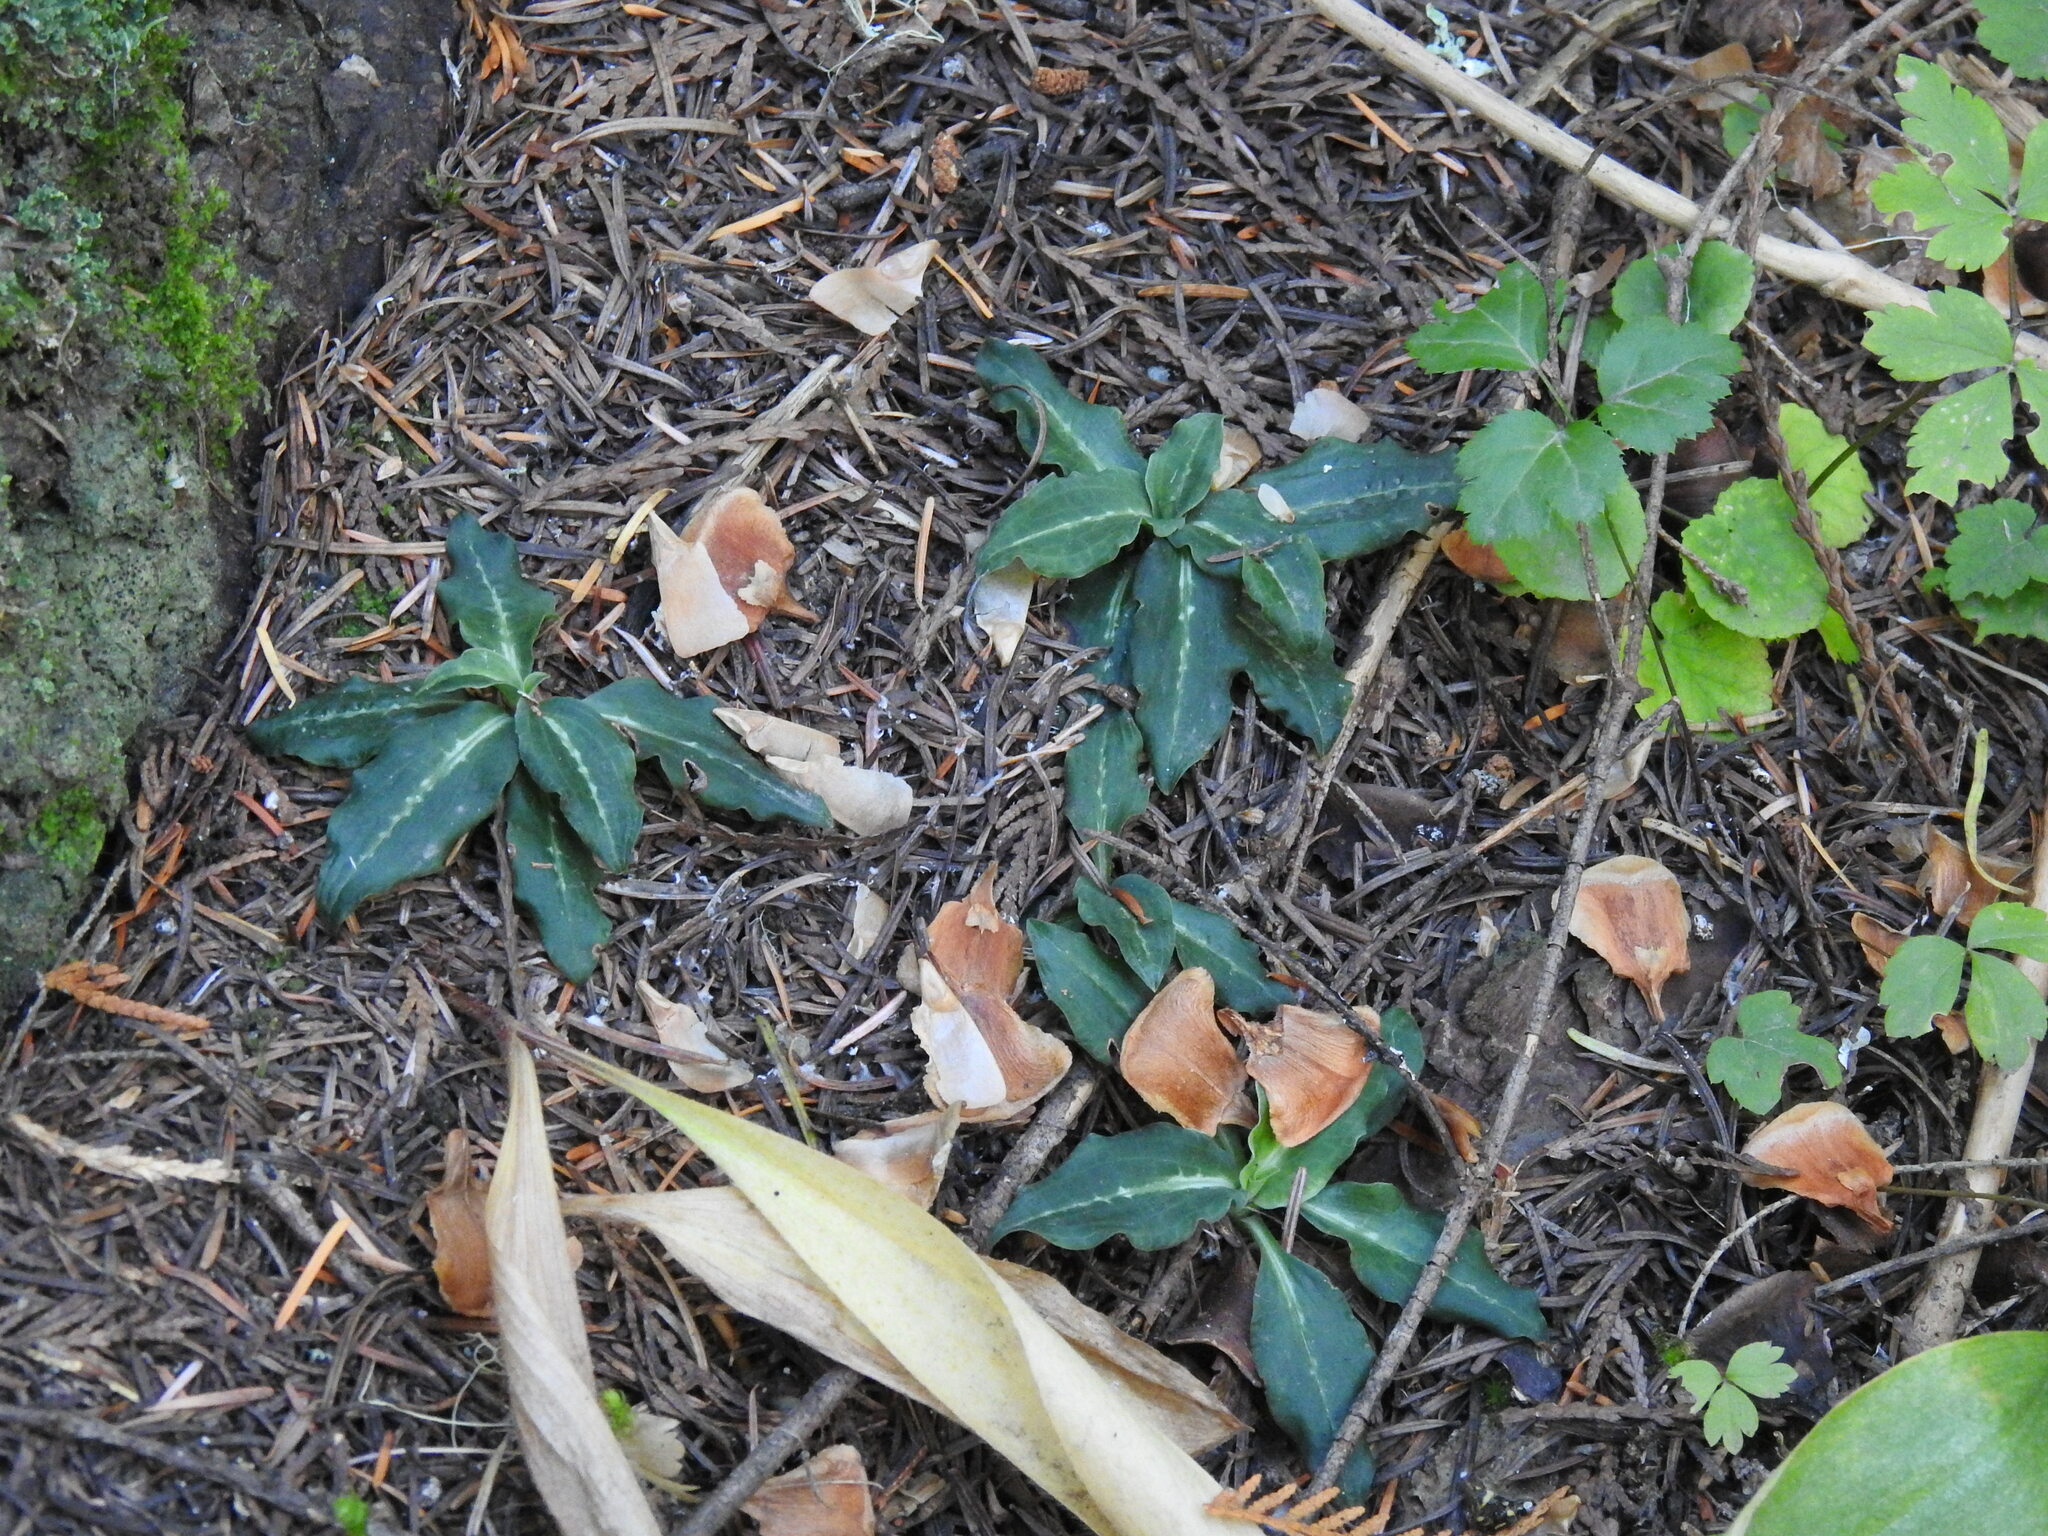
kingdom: Plantae
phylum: Tracheophyta
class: Liliopsida
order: Asparagales
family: Orchidaceae
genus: Goodyera
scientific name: Goodyera oblongifolia
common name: Giant rattlesnake-plantain
